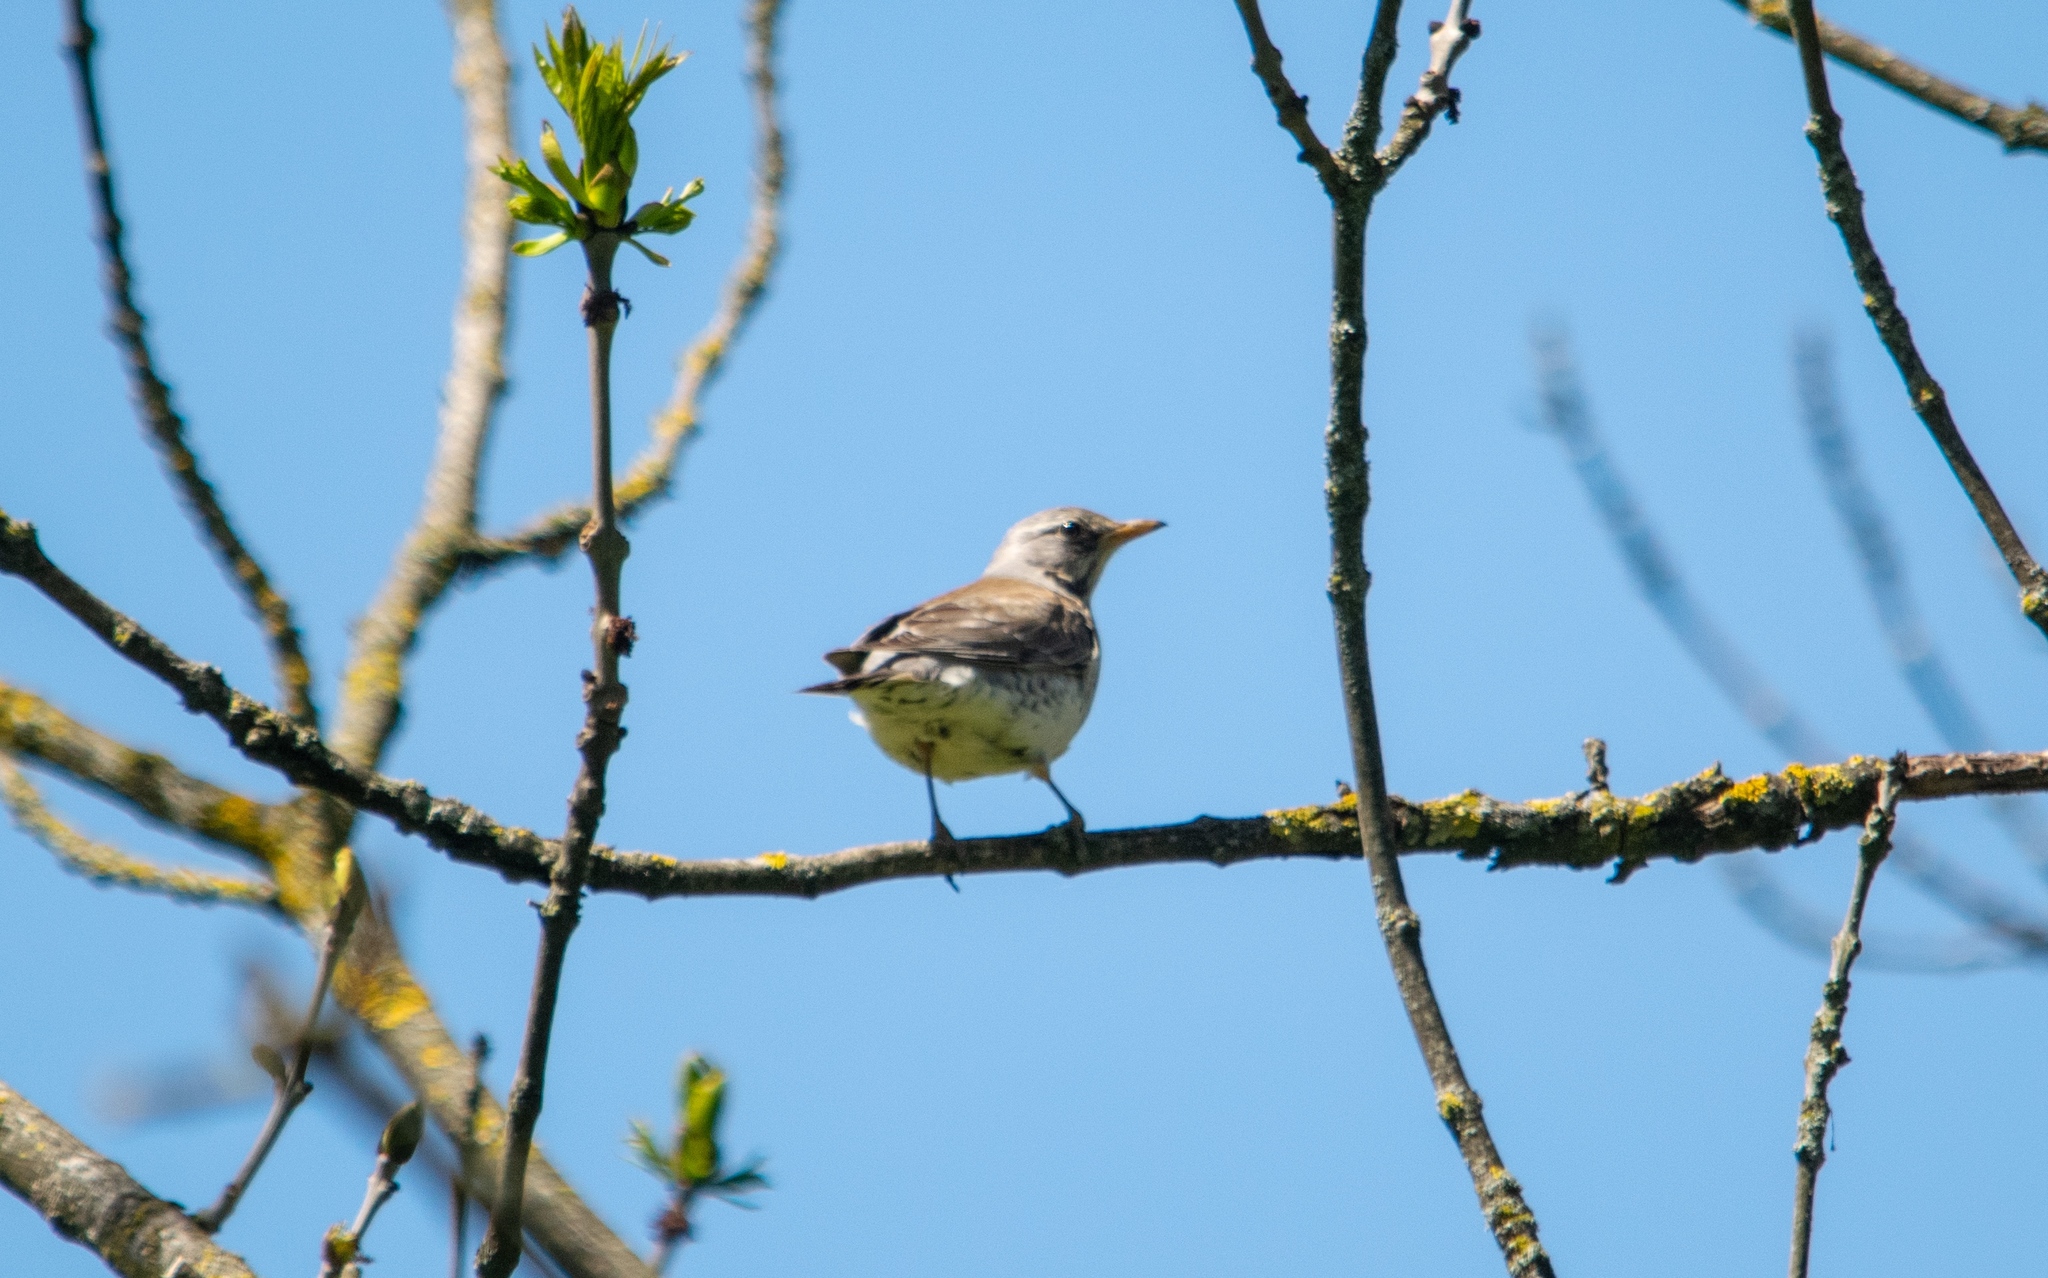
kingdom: Animalia
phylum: Chordata
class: Aves
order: Passeriformes
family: Turdidae
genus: Turdus
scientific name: Turdus pilaris
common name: Fieldfare
